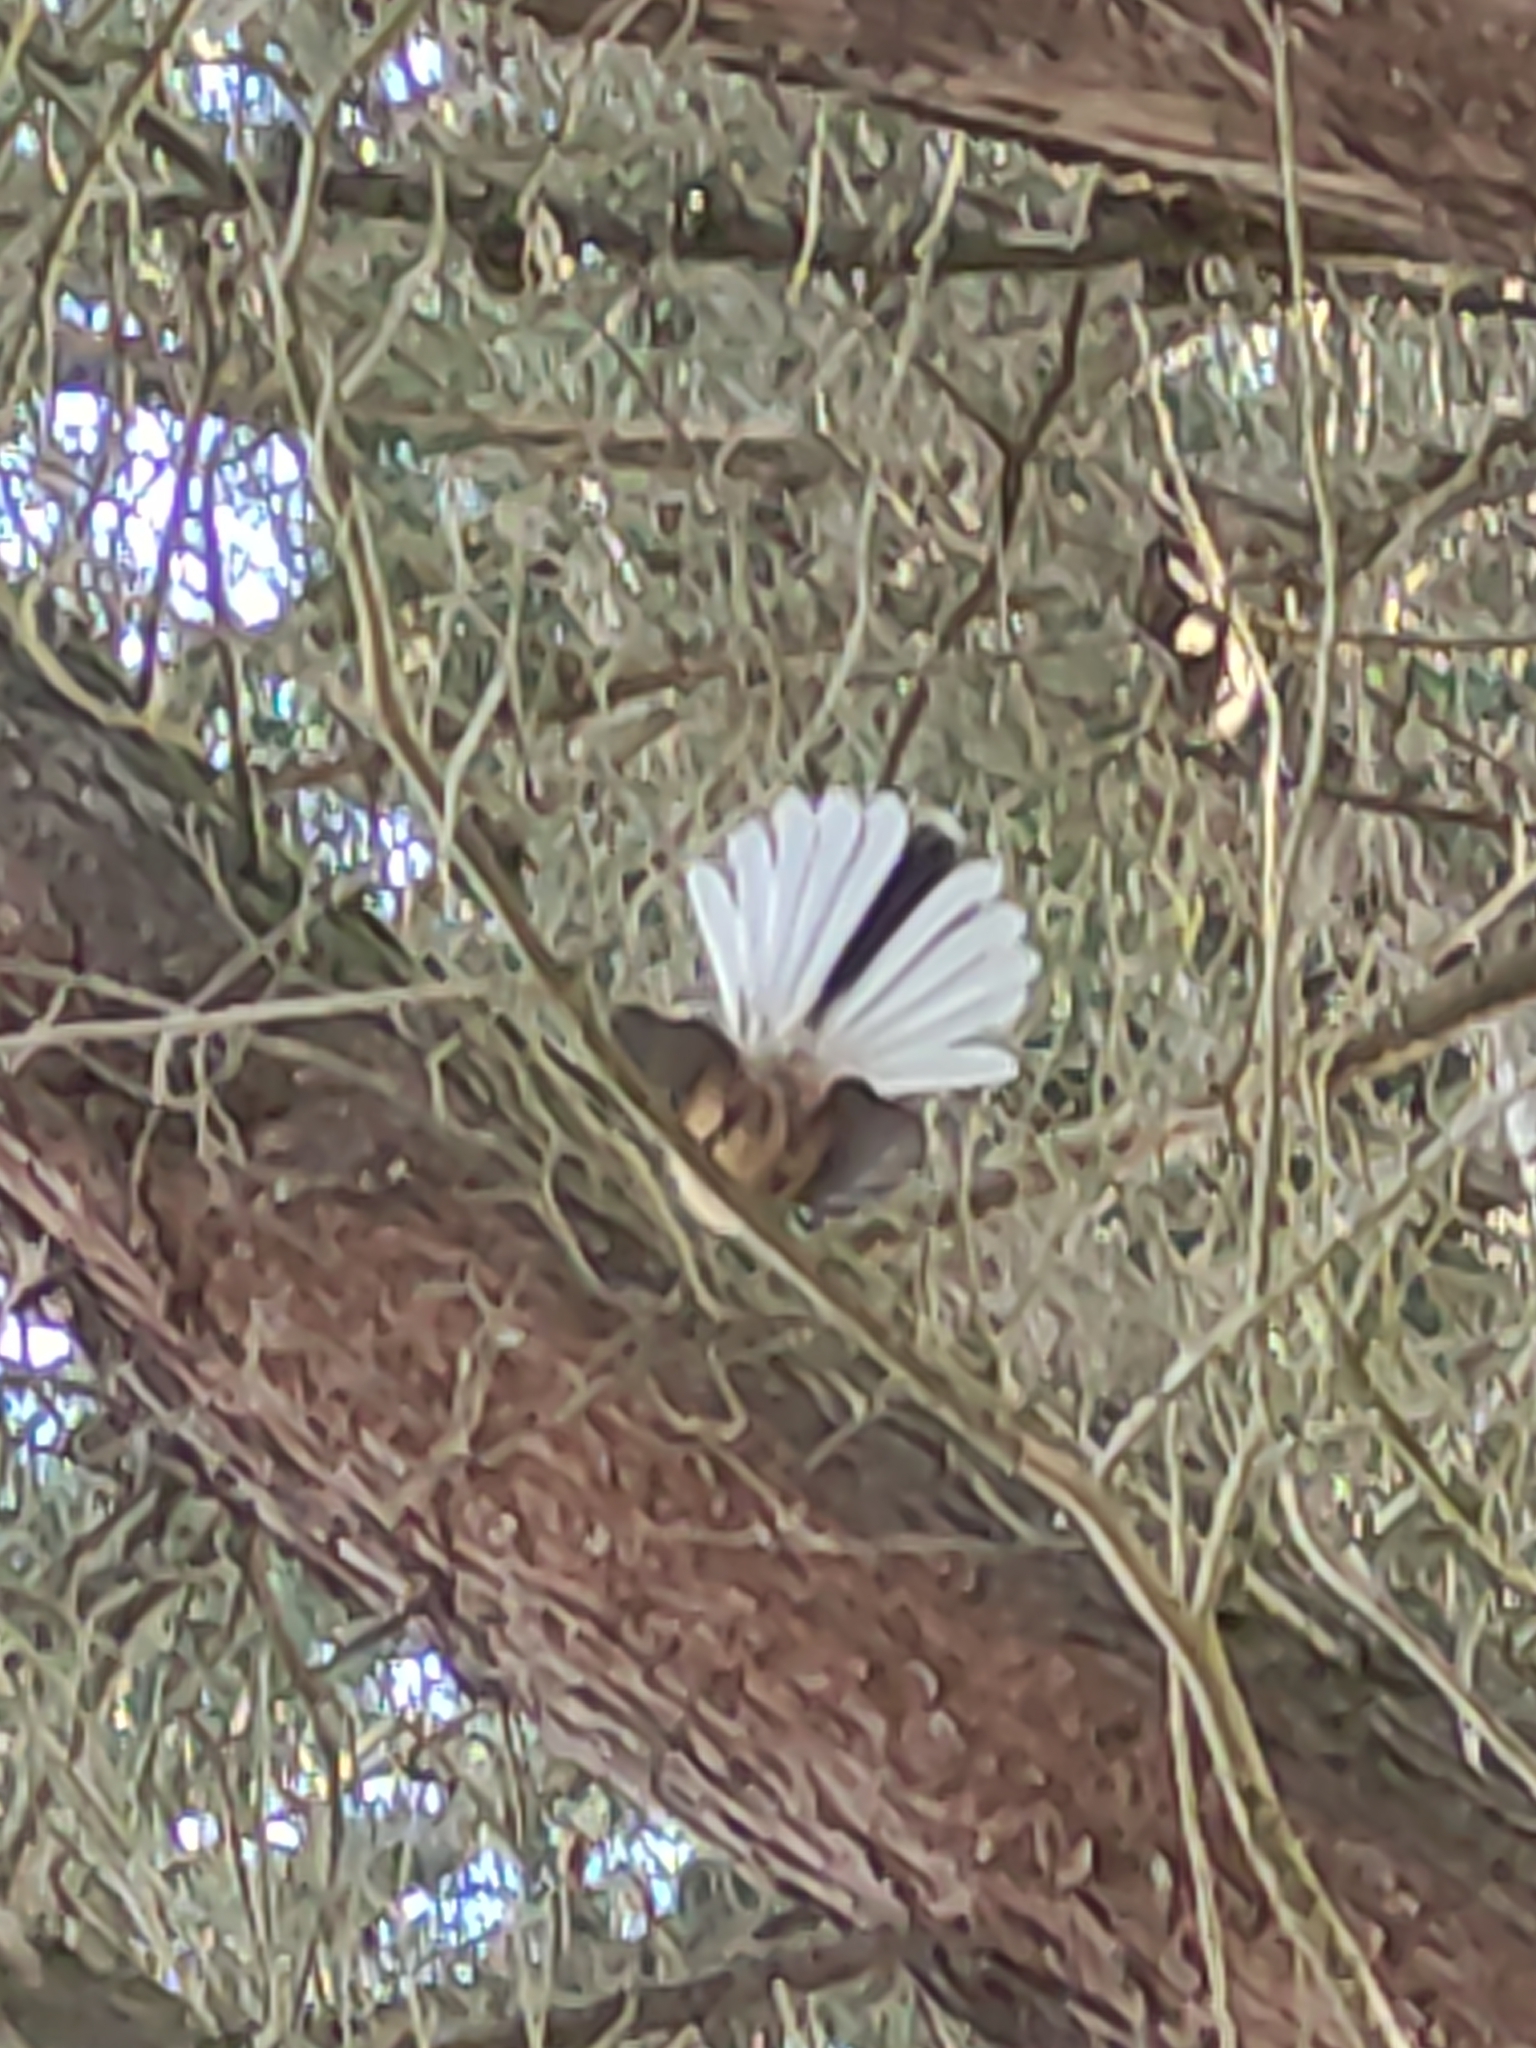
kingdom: Animalia
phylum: Chordata
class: Aves
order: Passeriformes
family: Rhipiduridae
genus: Rhipidura
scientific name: Rhipidura fuliginosa
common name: New zealand fantail
